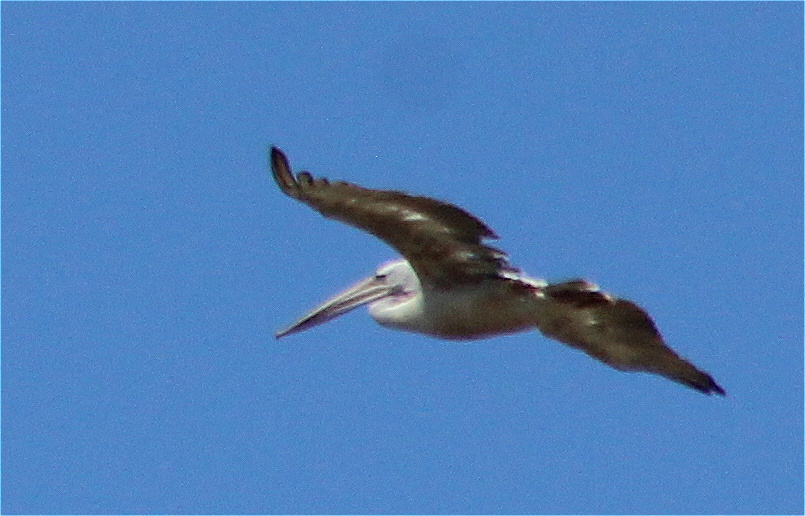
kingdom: Animalia
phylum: Chordata
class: Aves
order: Pelecaniformes
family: Pelecanidae
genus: Pelecanus
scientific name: Pelecanus rufescens
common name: Pink-backed pelican
